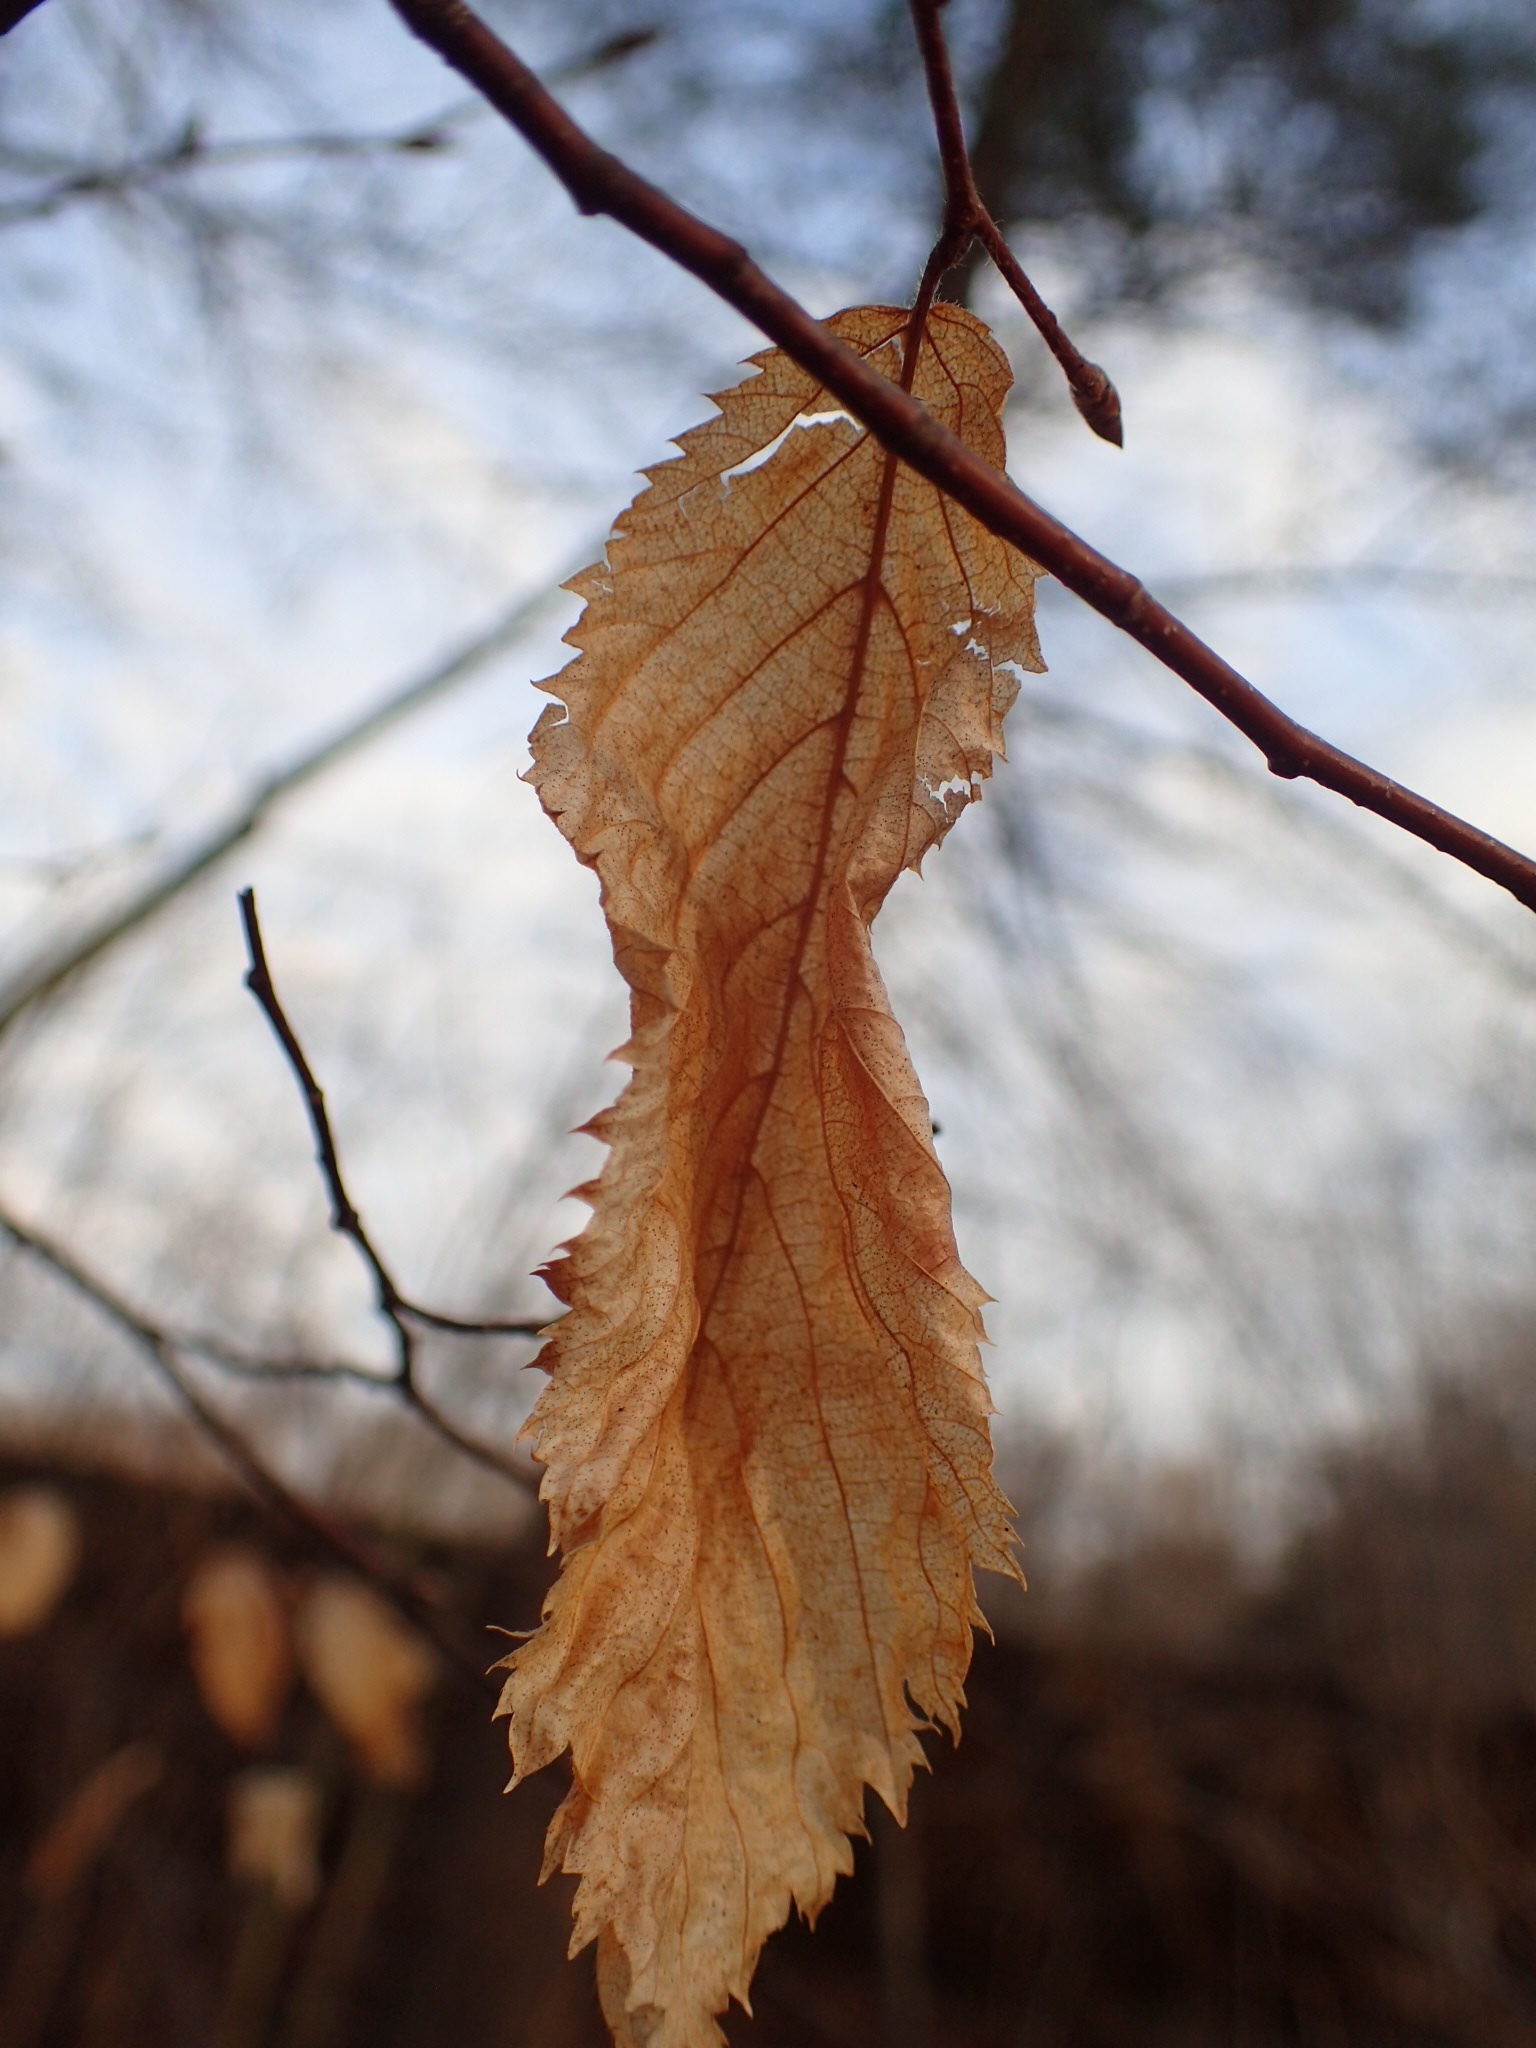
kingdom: Plantae
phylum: Tracheophyta
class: Magnoliopsida
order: Fagales
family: Betulaceae
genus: Ostrya
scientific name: Ostrya virginiana
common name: Ironwood
